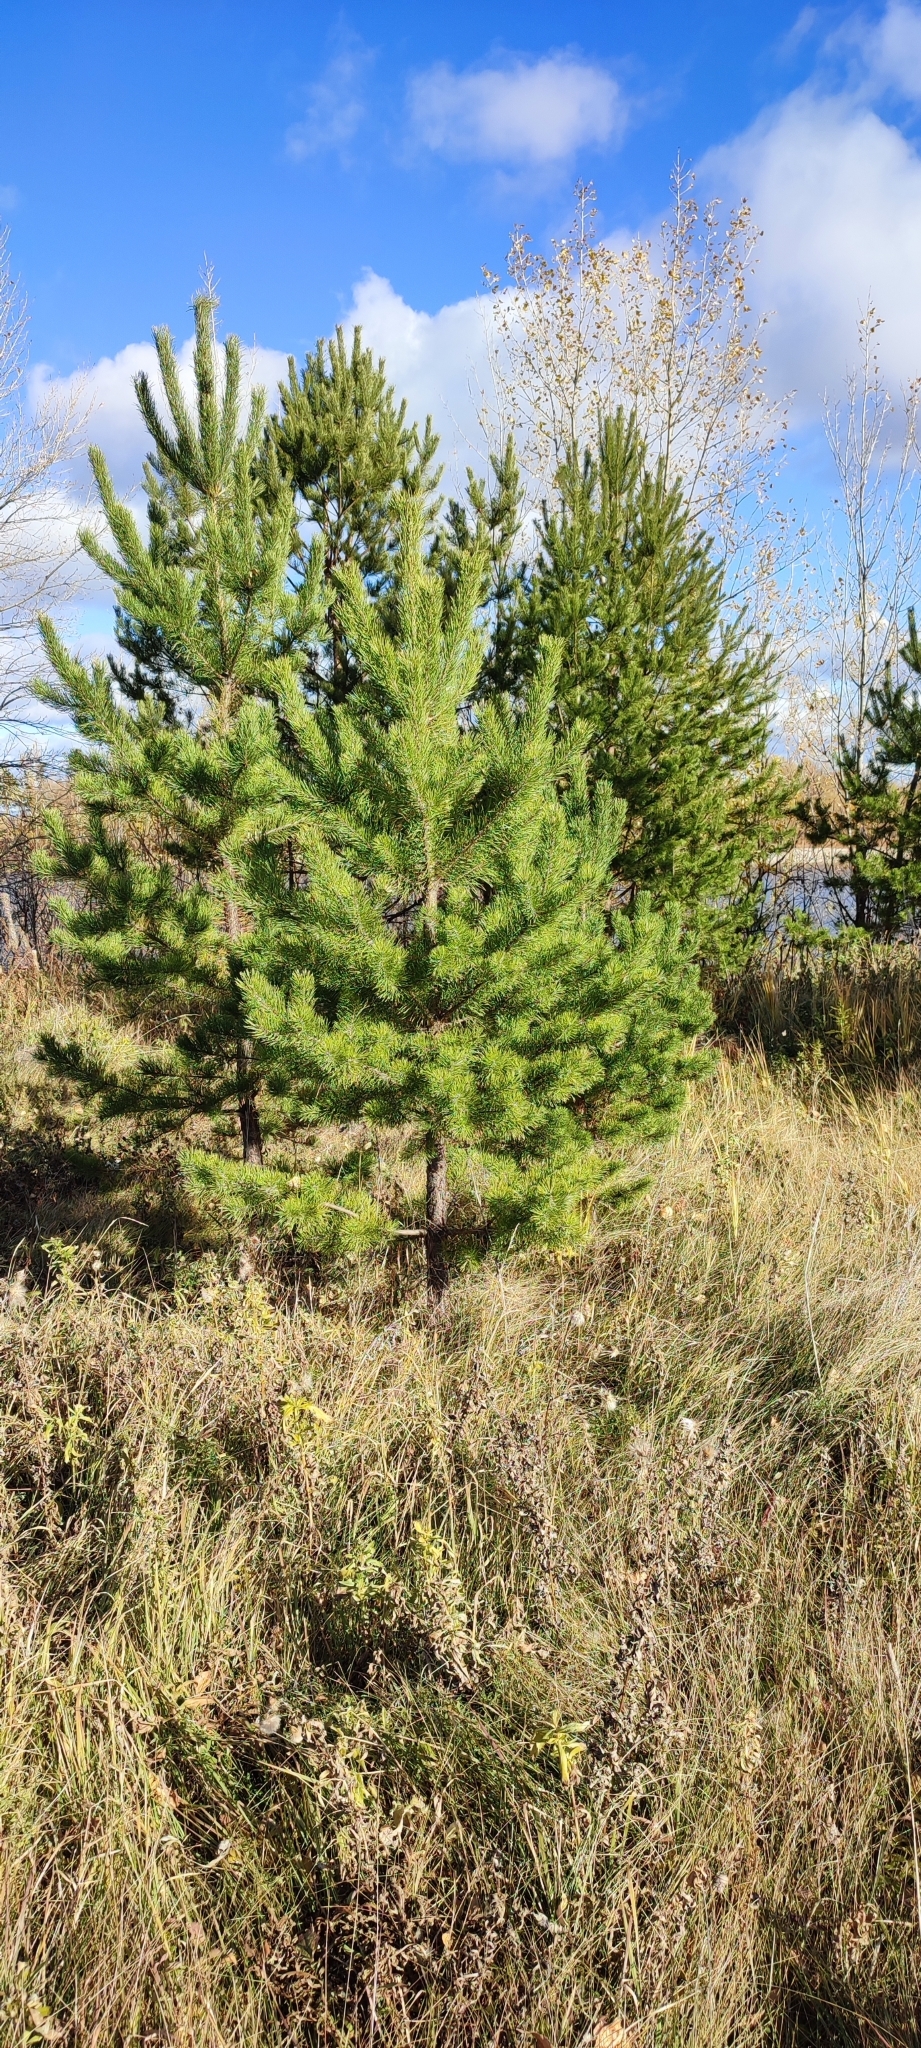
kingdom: Plantae
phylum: Tracheophyta
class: Pinopsida
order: Pinales
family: Pinaceae
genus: Pinus
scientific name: Pinus sylvestris
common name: Scots pine
